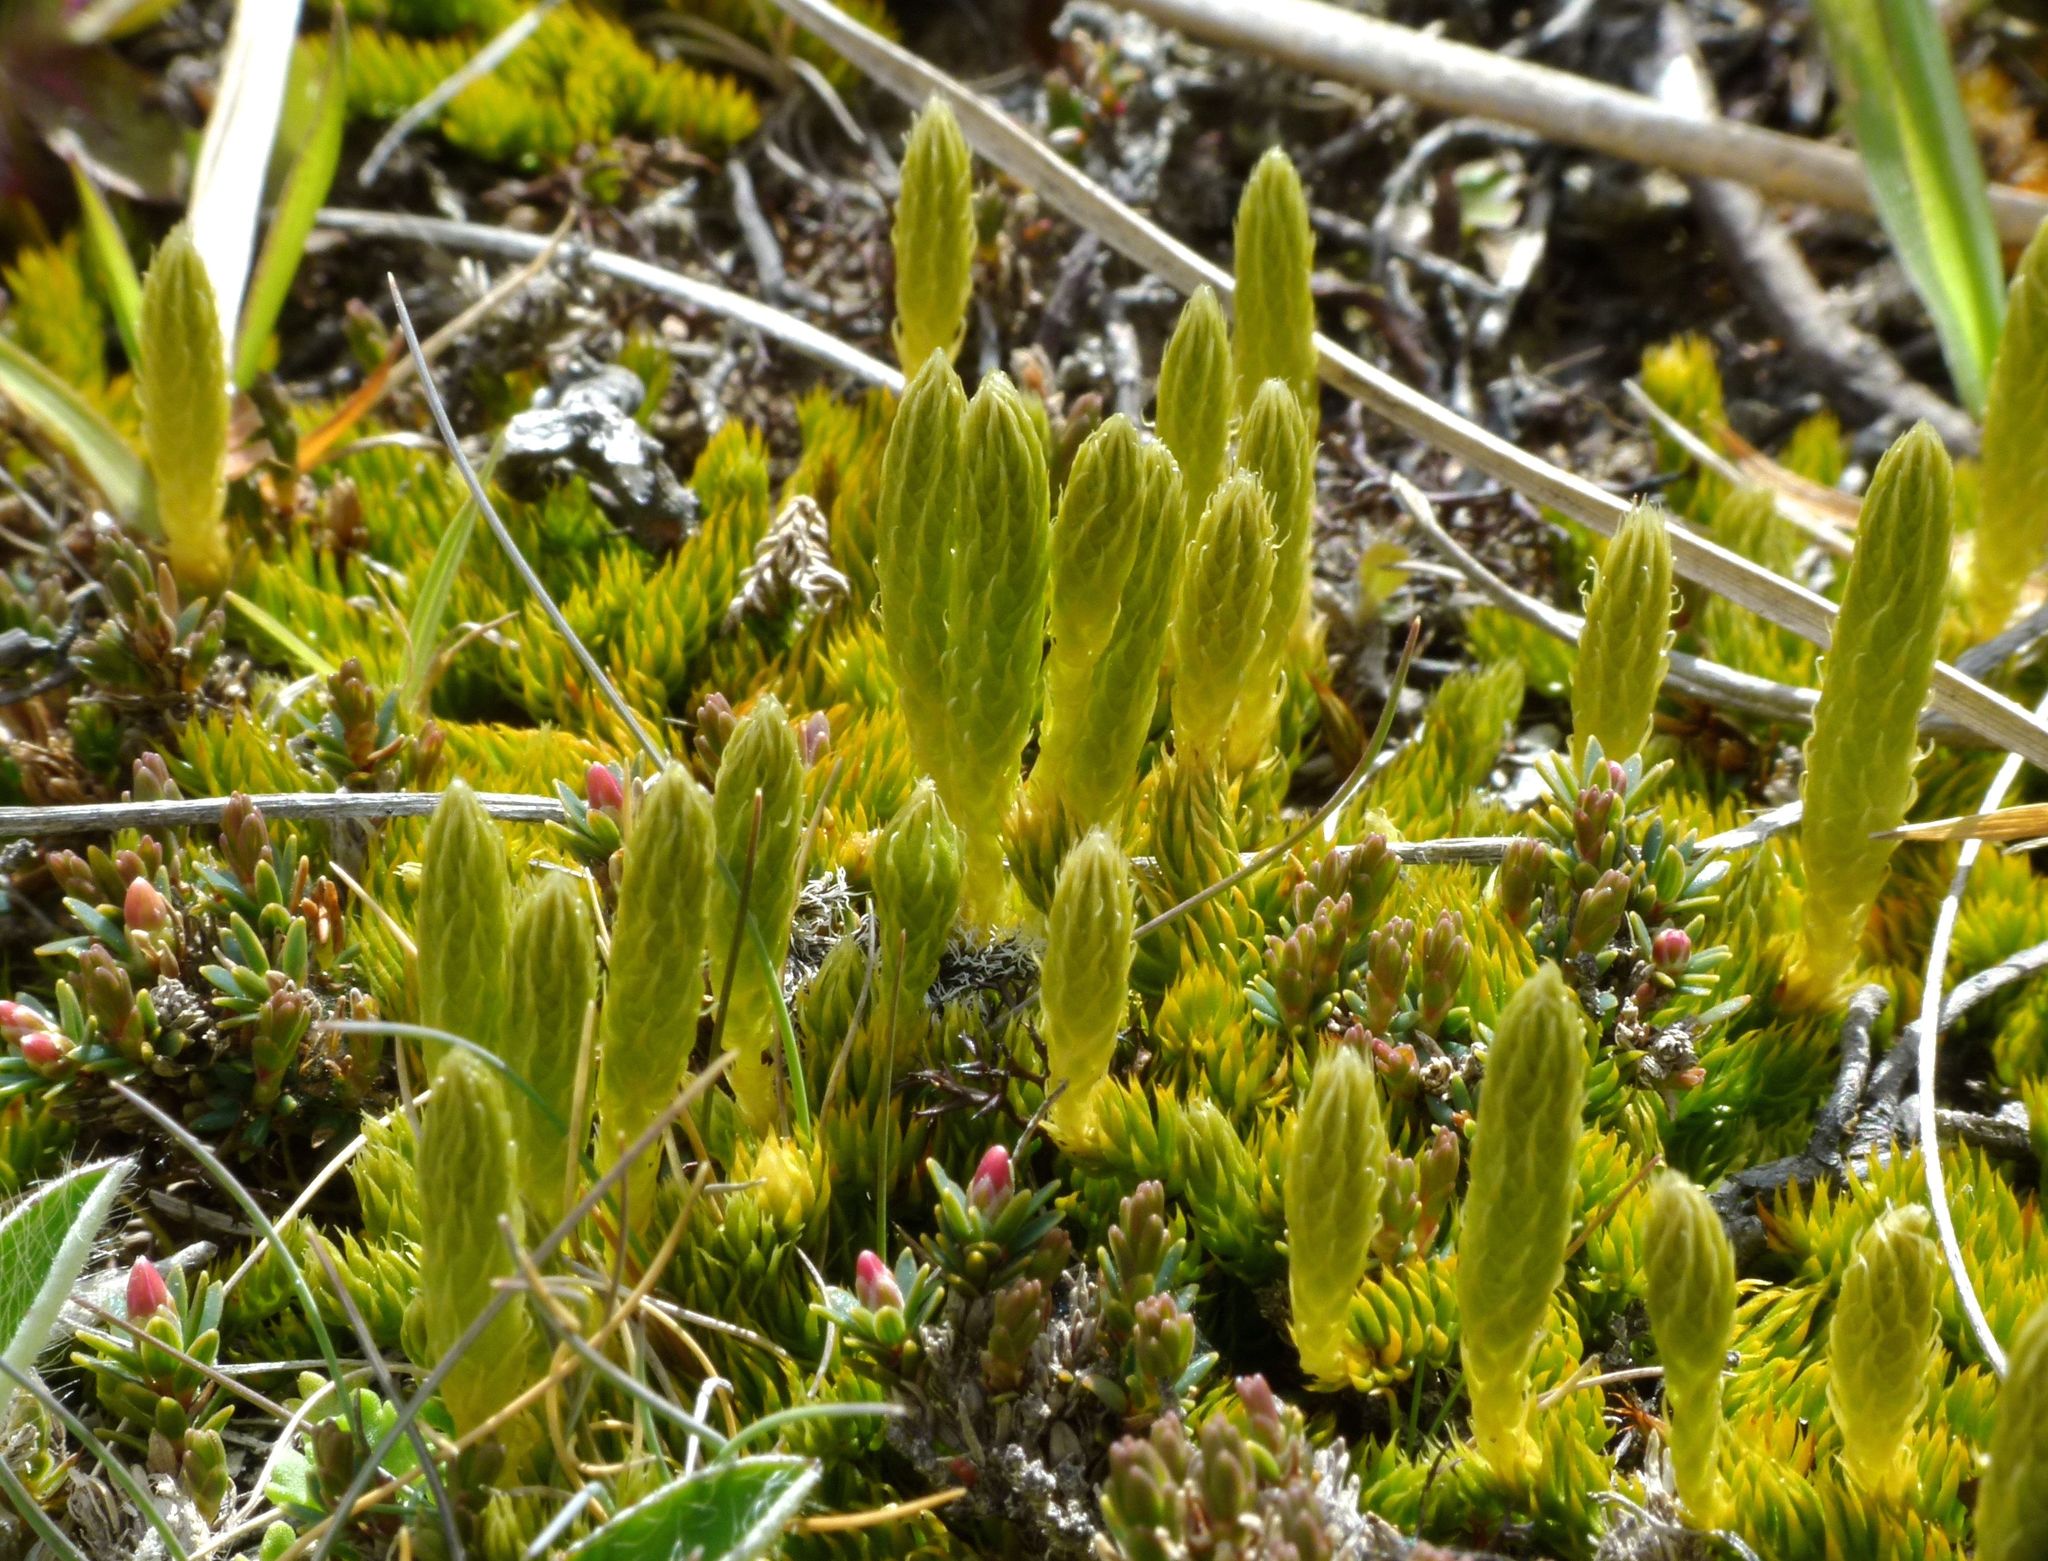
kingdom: Plantae
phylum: Tracheophyta
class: Lycopodiopsida
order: Lycopodiales
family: Lycopodiaceae
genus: Austrolycopodium
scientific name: Austrolycopodium fastigiatum
